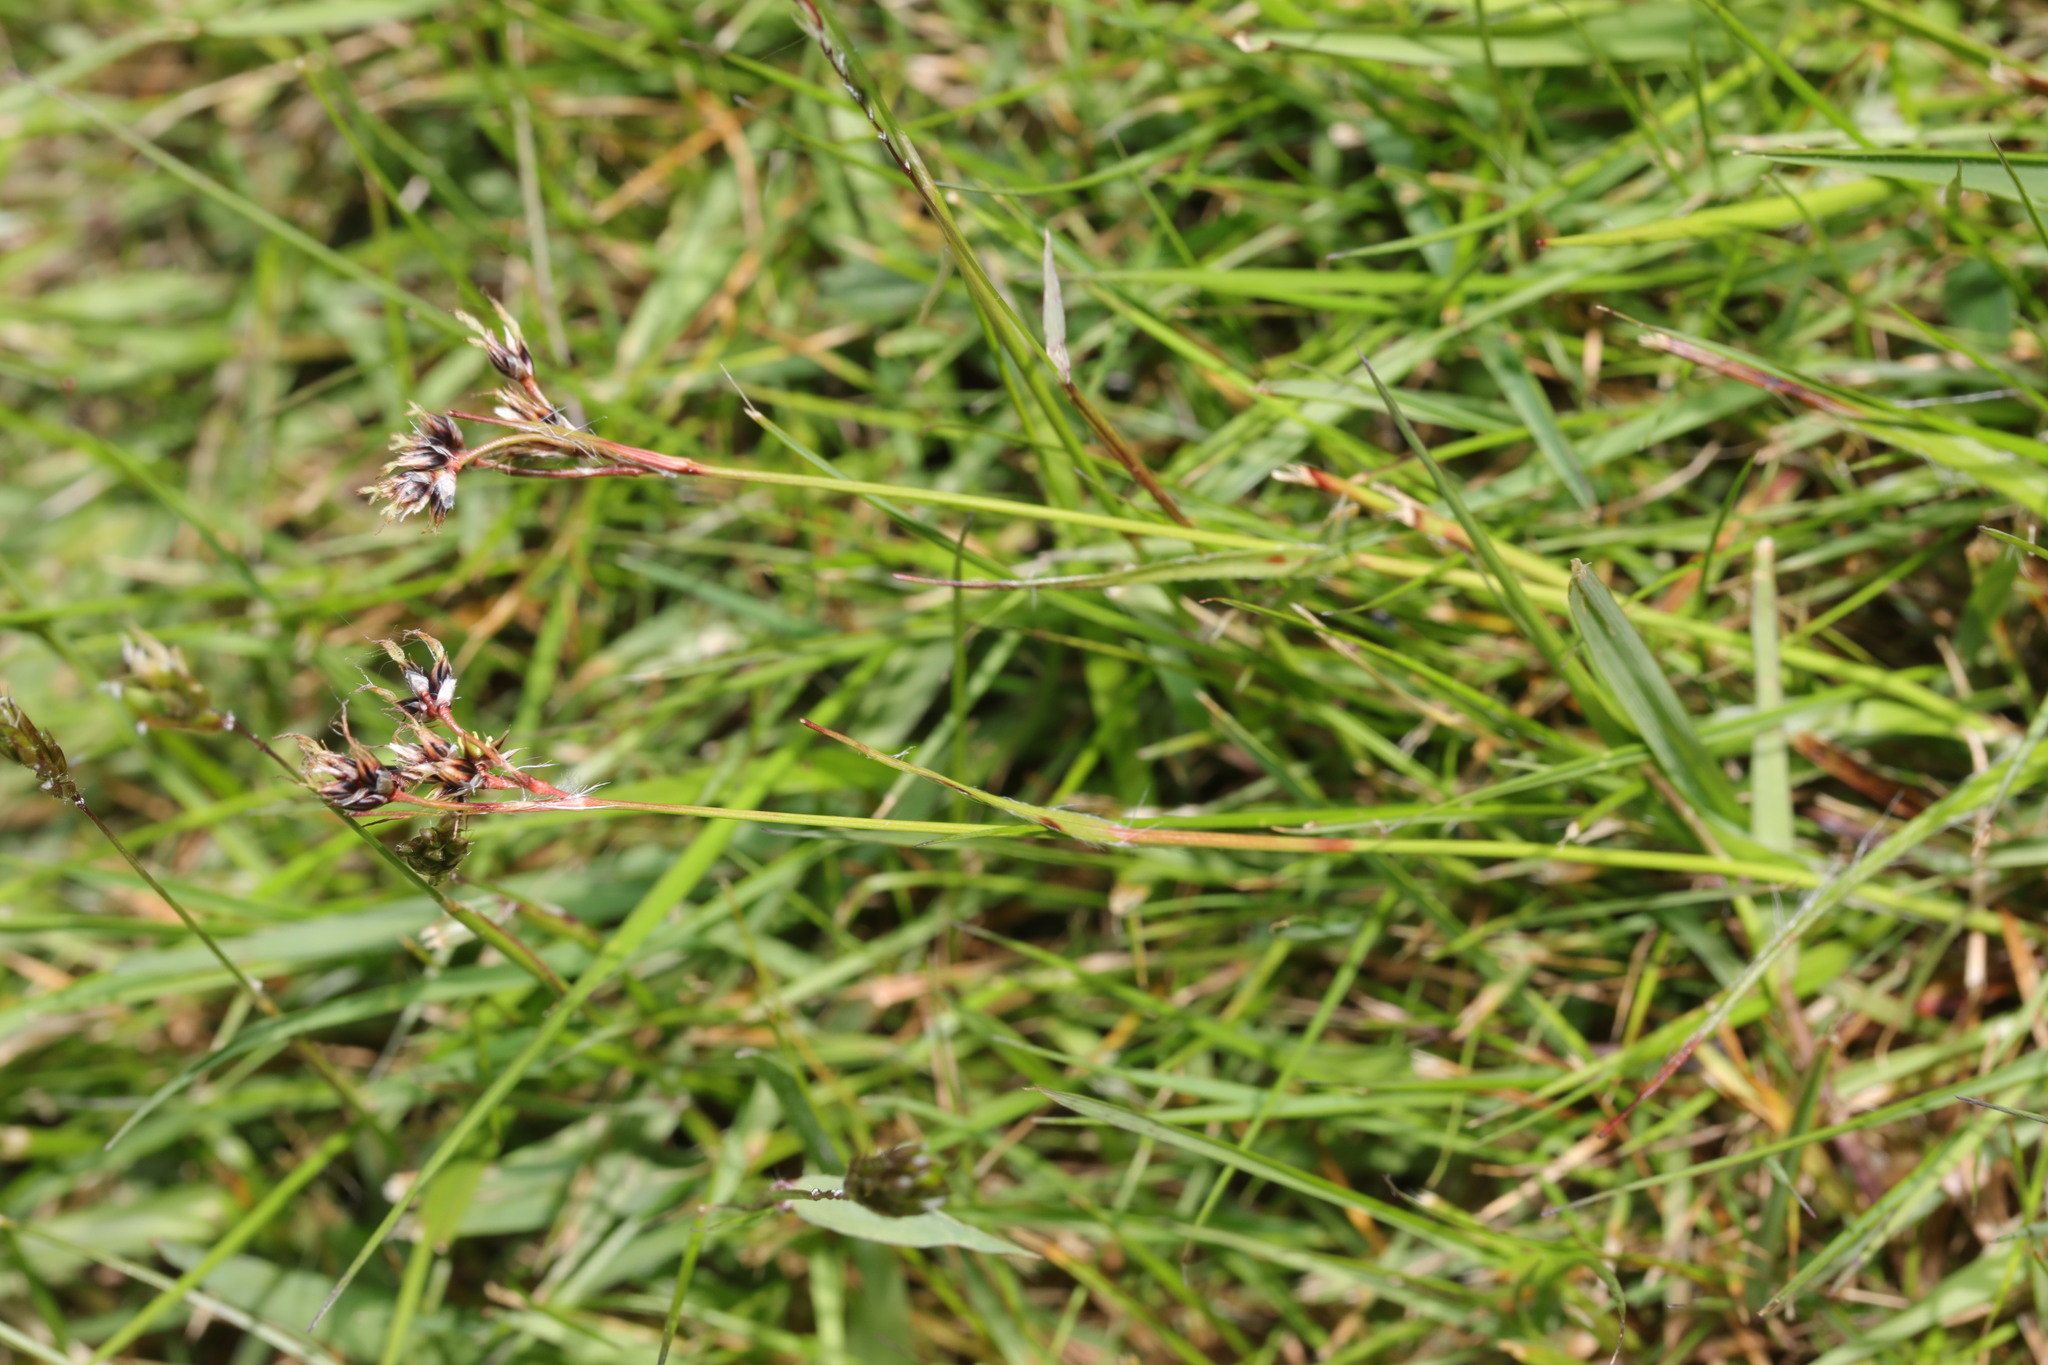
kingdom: Plantae
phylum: Tracheophyta
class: Liliopsida
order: Poales
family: Juncaceae
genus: Luzula
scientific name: Luzula campestris
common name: Field wood-rush
